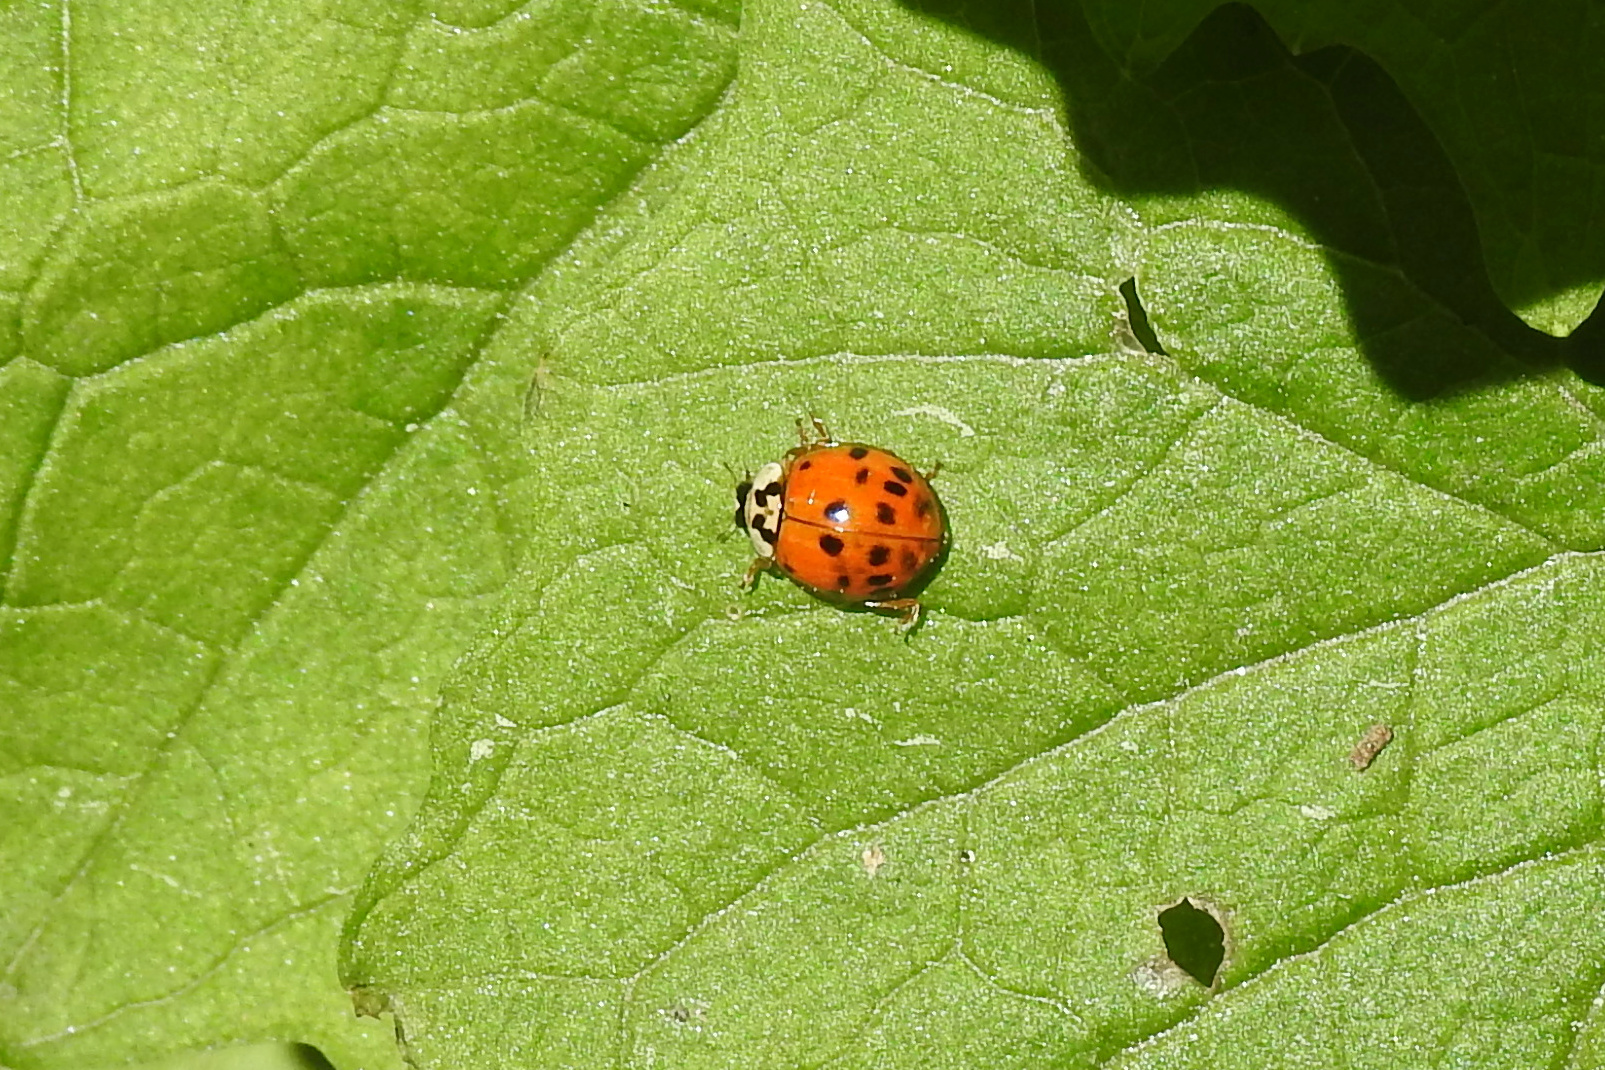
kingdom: Animalia
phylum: Arthropoda
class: Insecta
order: Coleoptera
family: Coccinellidae
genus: Harmonia
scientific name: Harmonia axyridis
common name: Harlequin ladybird
